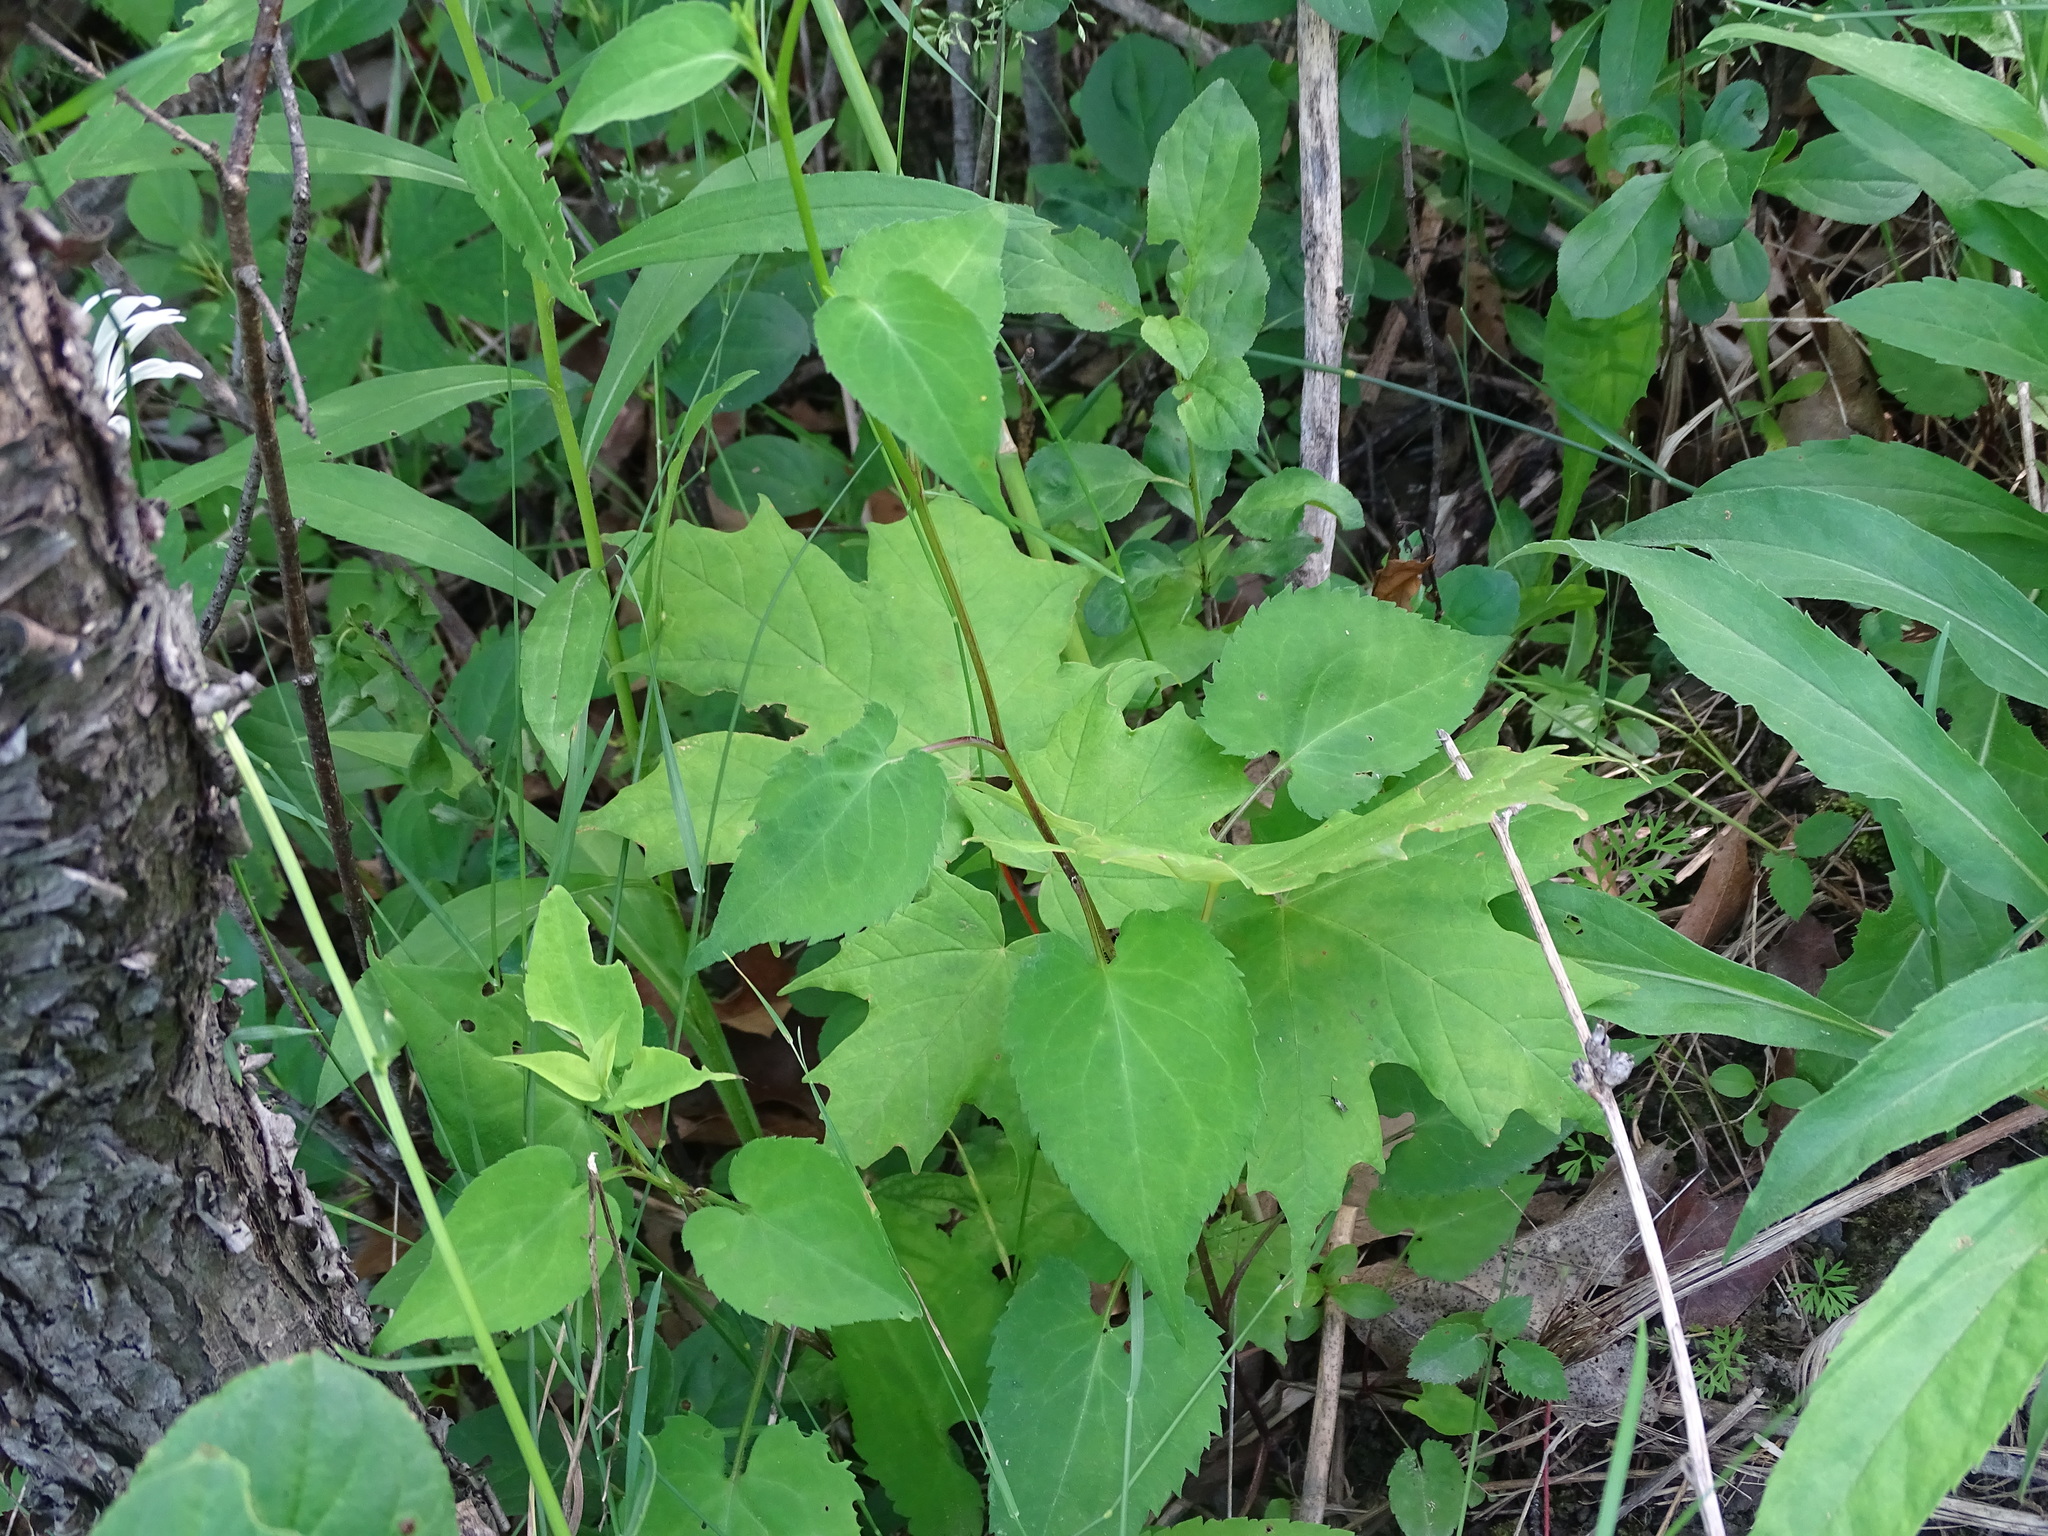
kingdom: Plantae
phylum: Tracheophyta
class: Magnoliopsida
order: Asterales
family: Asteraceae
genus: Symphyotrichum
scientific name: Symphyotrichum cordifolium
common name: Beeweed
